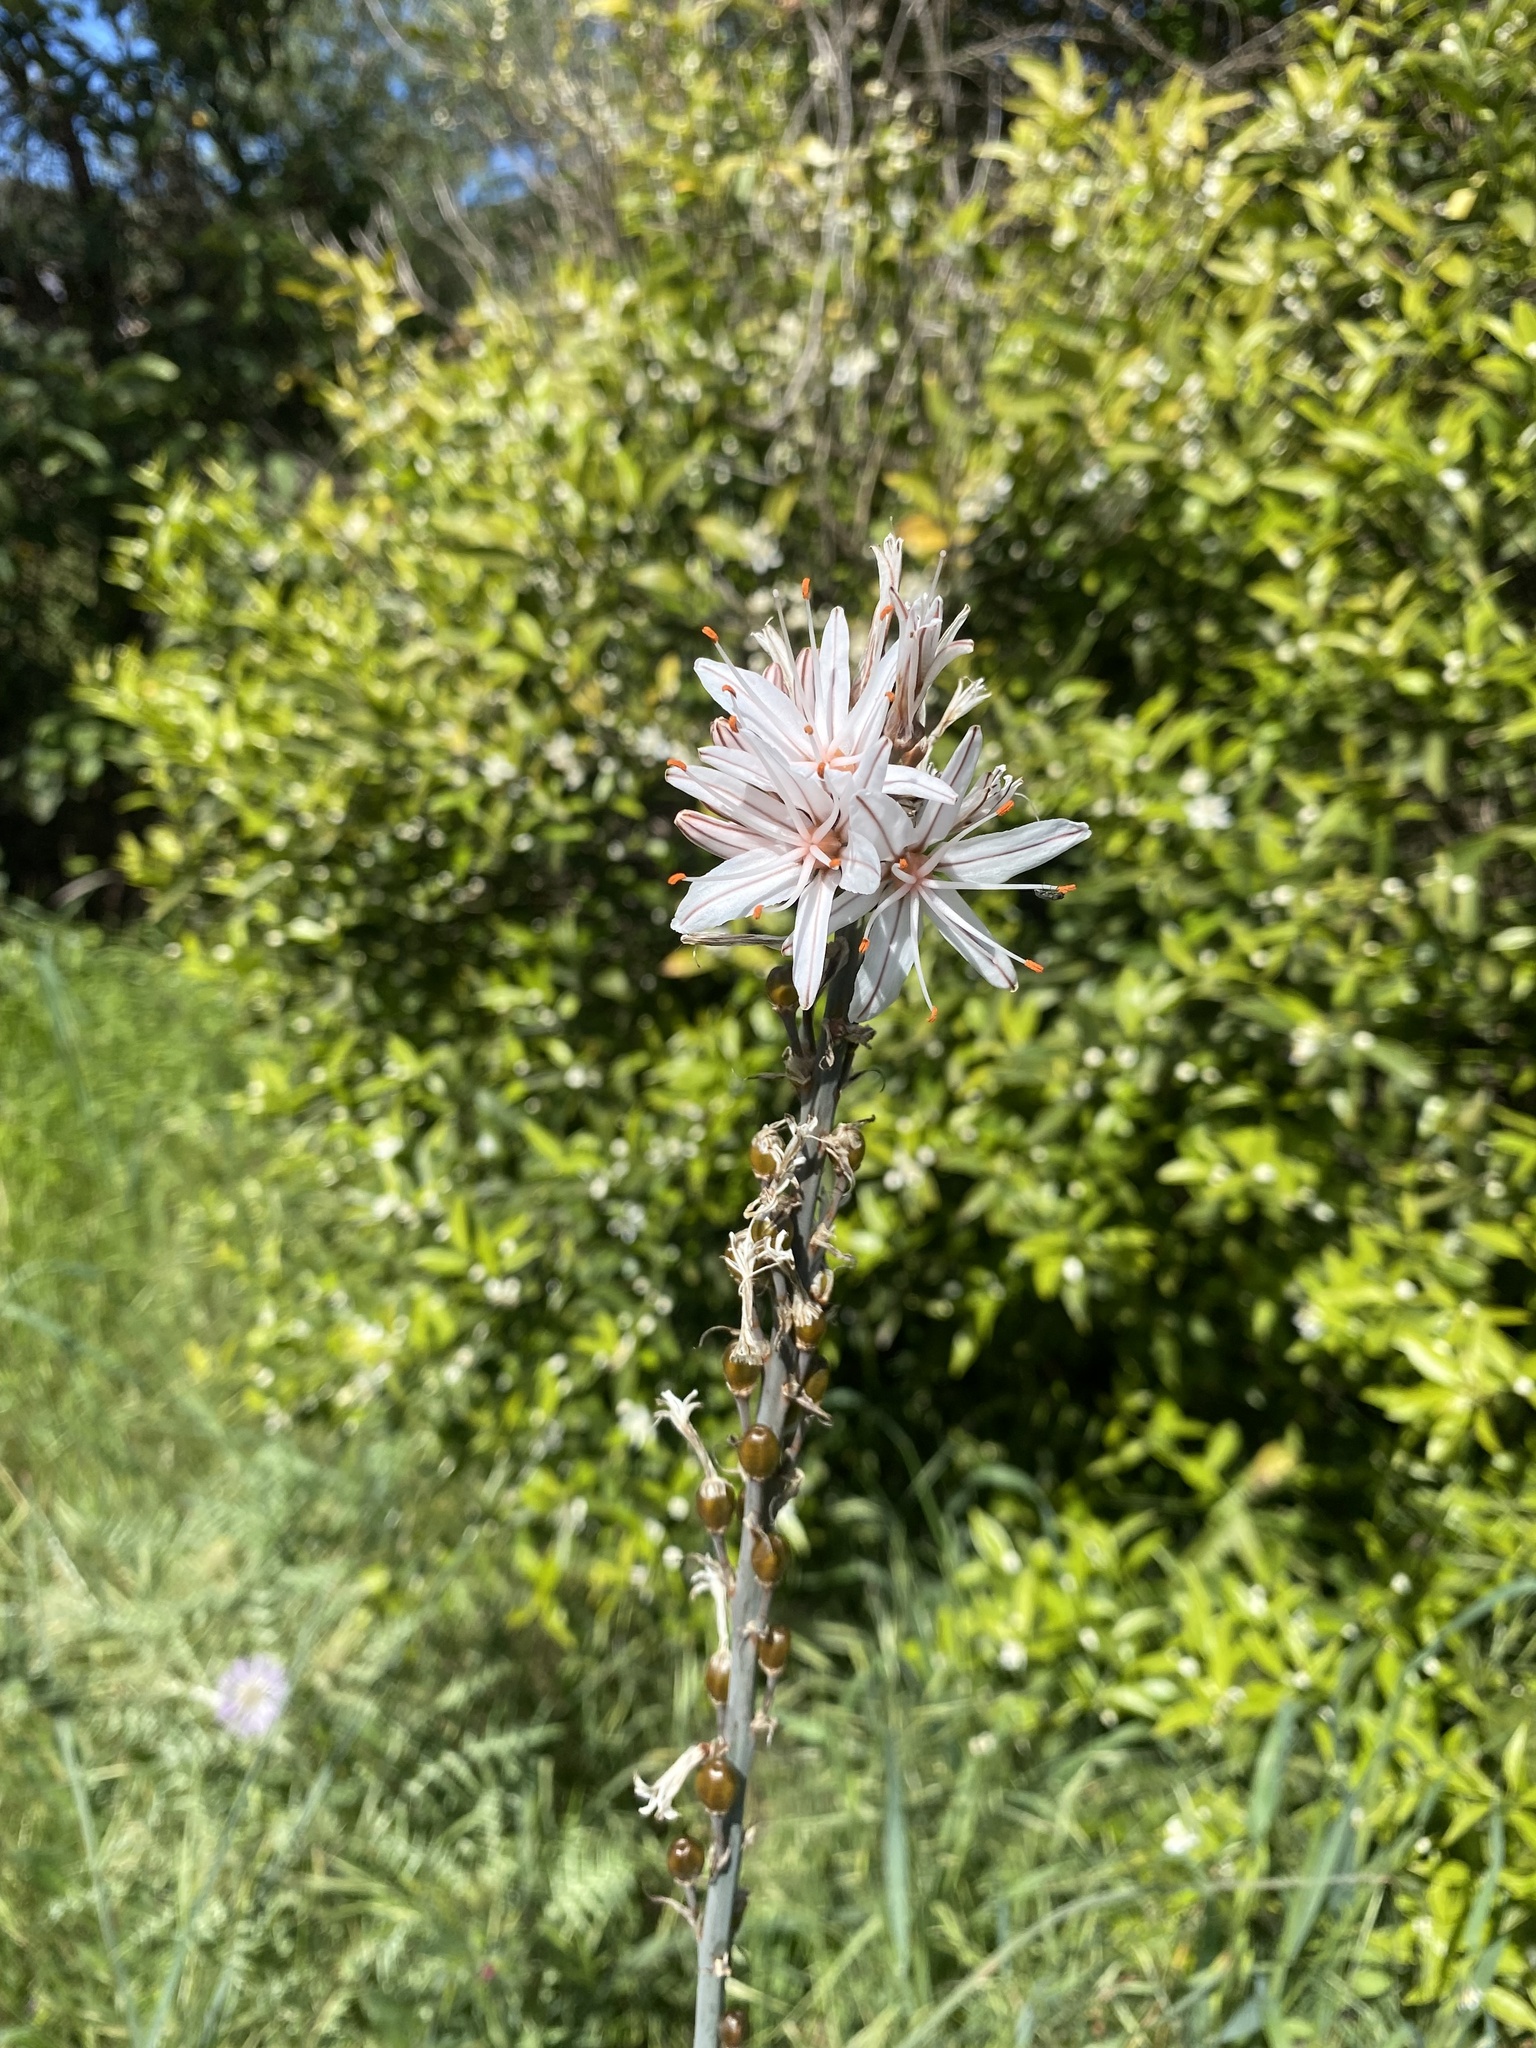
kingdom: Plantae
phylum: Tracheophyta
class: Liliopsida
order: Asparagales
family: Asphodelaceae
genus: Asphodelus
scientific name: Asphodelus ramosus
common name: Silverrod
